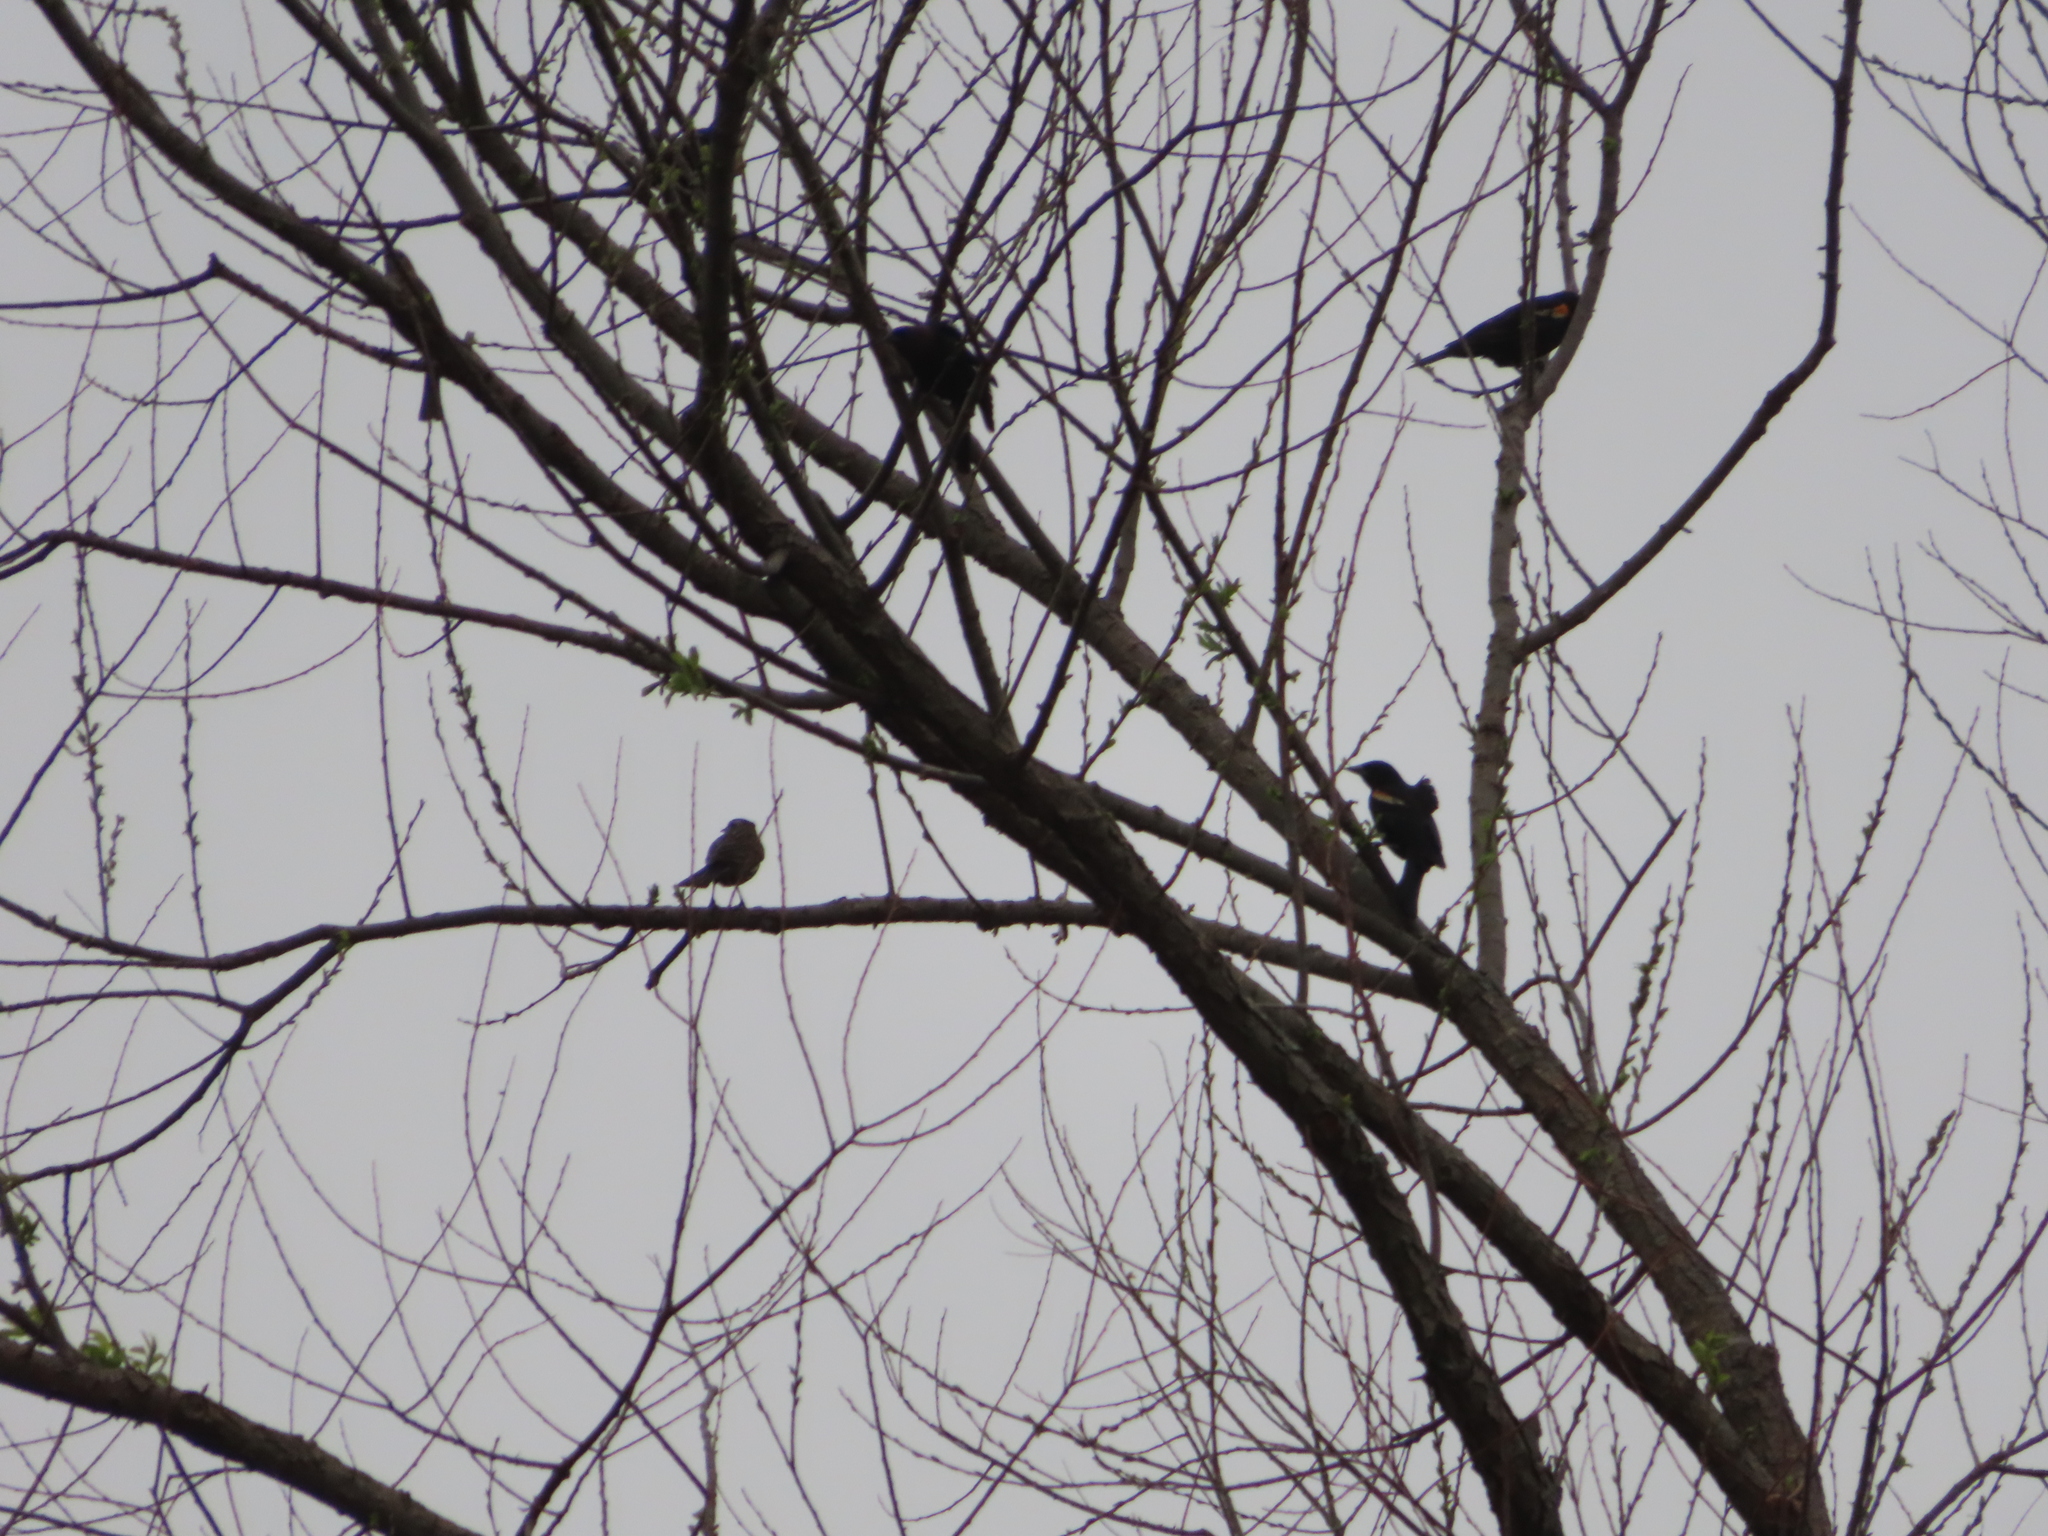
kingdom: Animalia
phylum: Chordata
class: Aves
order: Passeriformes
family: Sturnidae
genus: Sturnus
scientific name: Sturnus vulgaris
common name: Common starling
